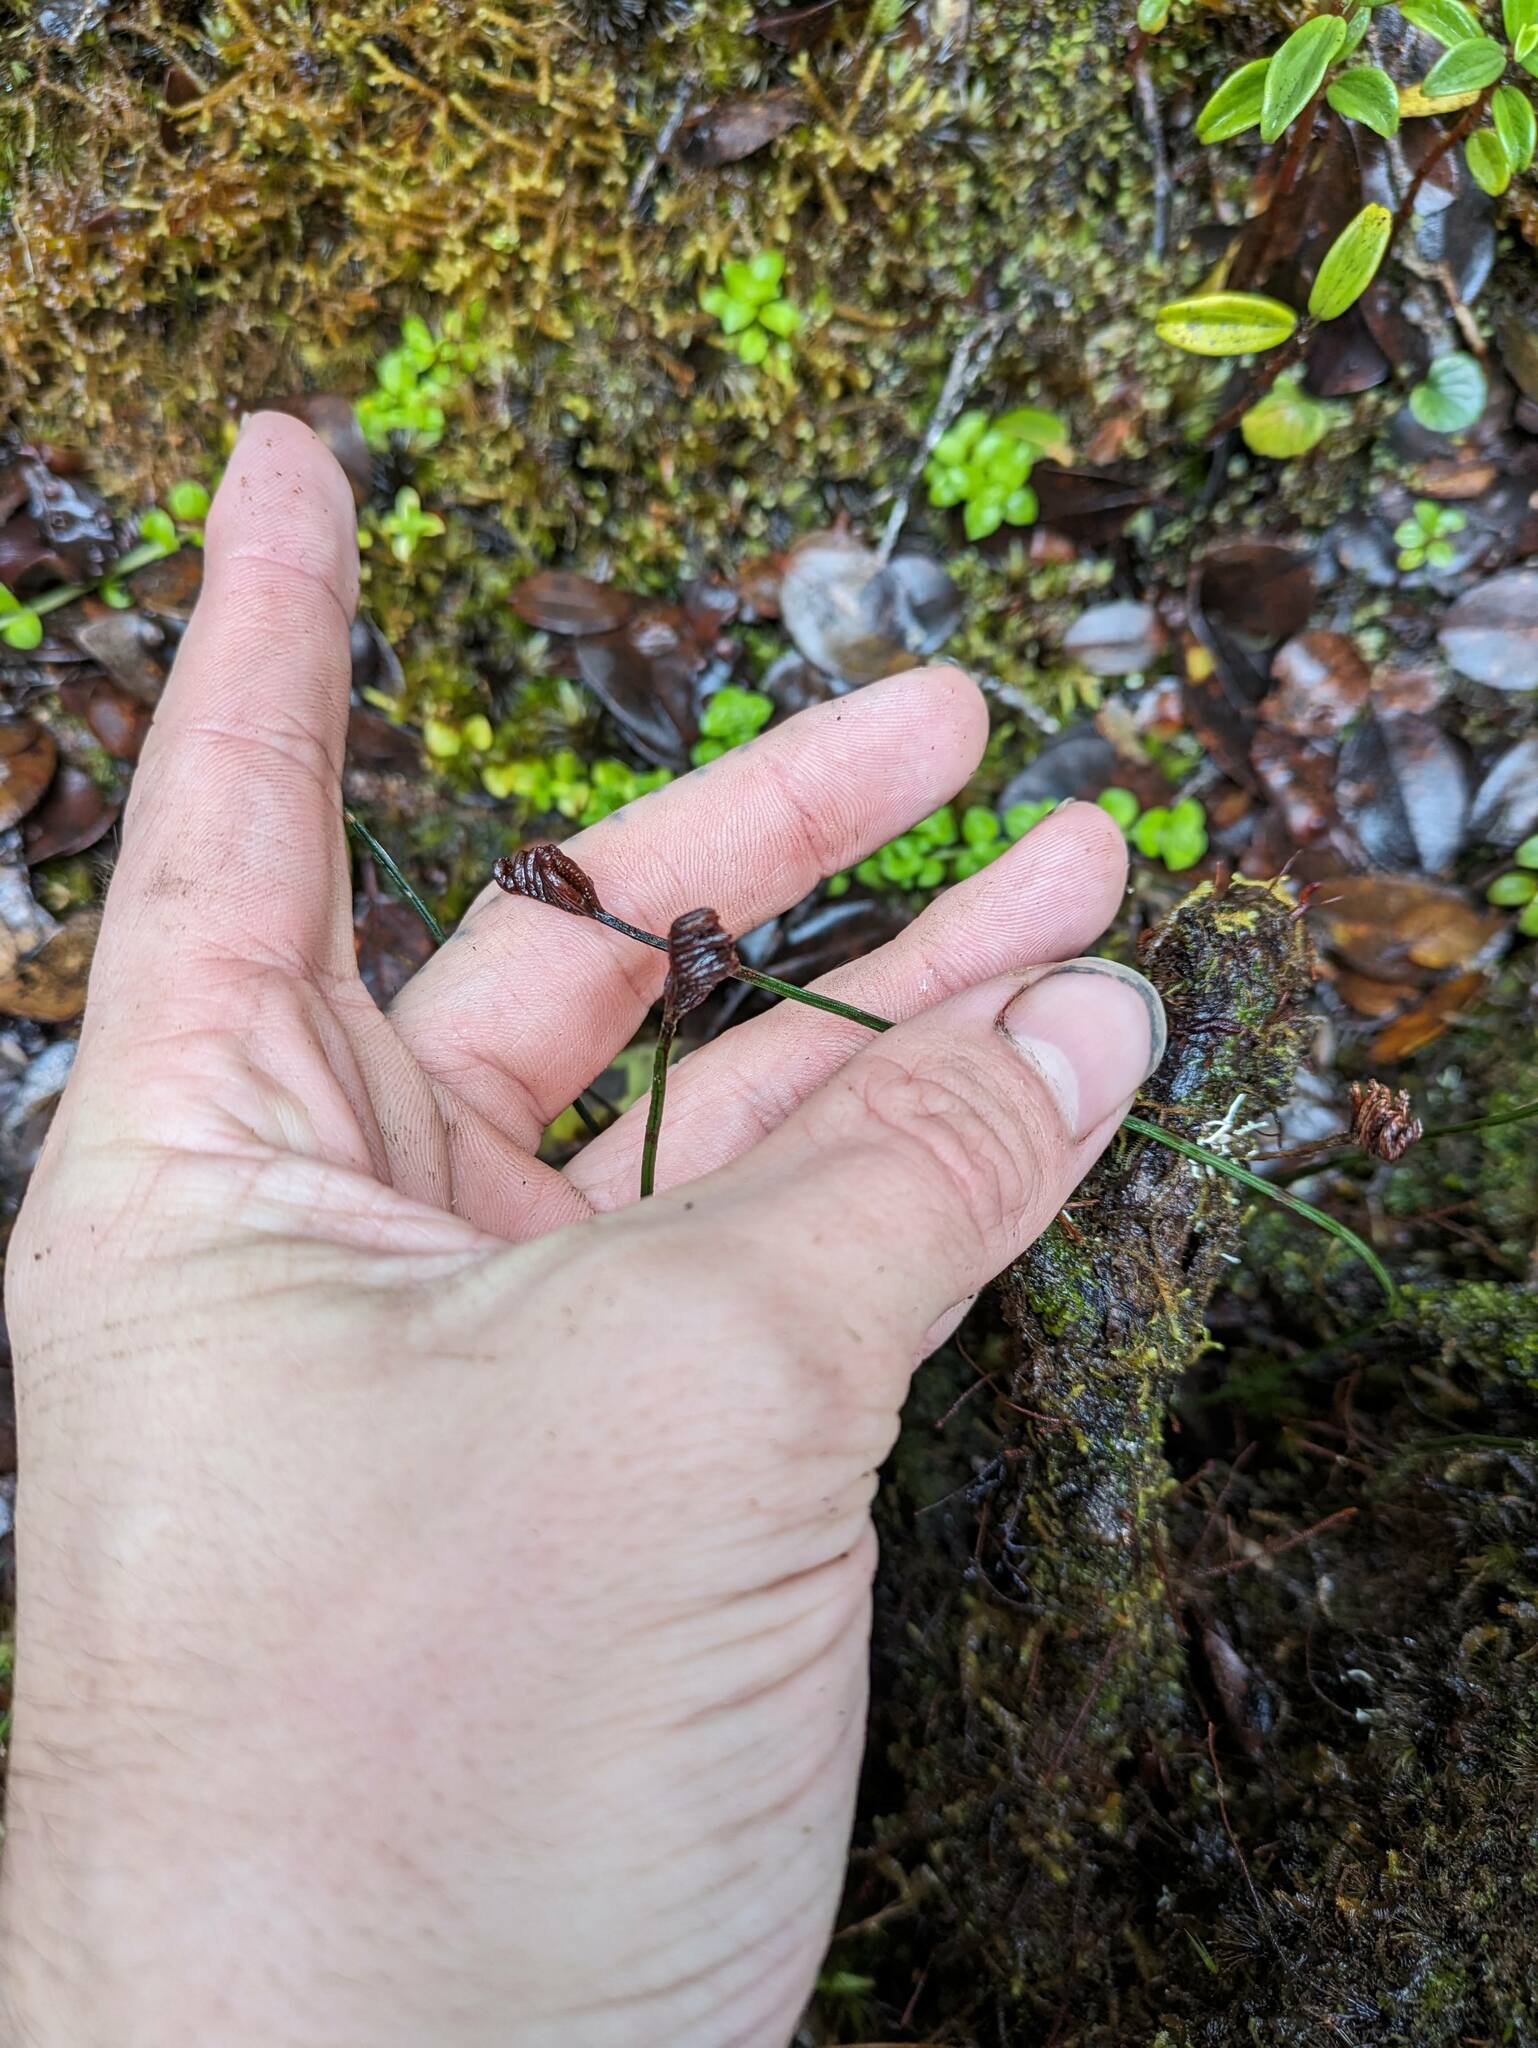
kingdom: Plantae
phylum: Tracheophyta
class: Polypodiopsida
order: Schizaeales
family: Schizaeaceae
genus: Microschizaea
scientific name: Microschizaea robusta
